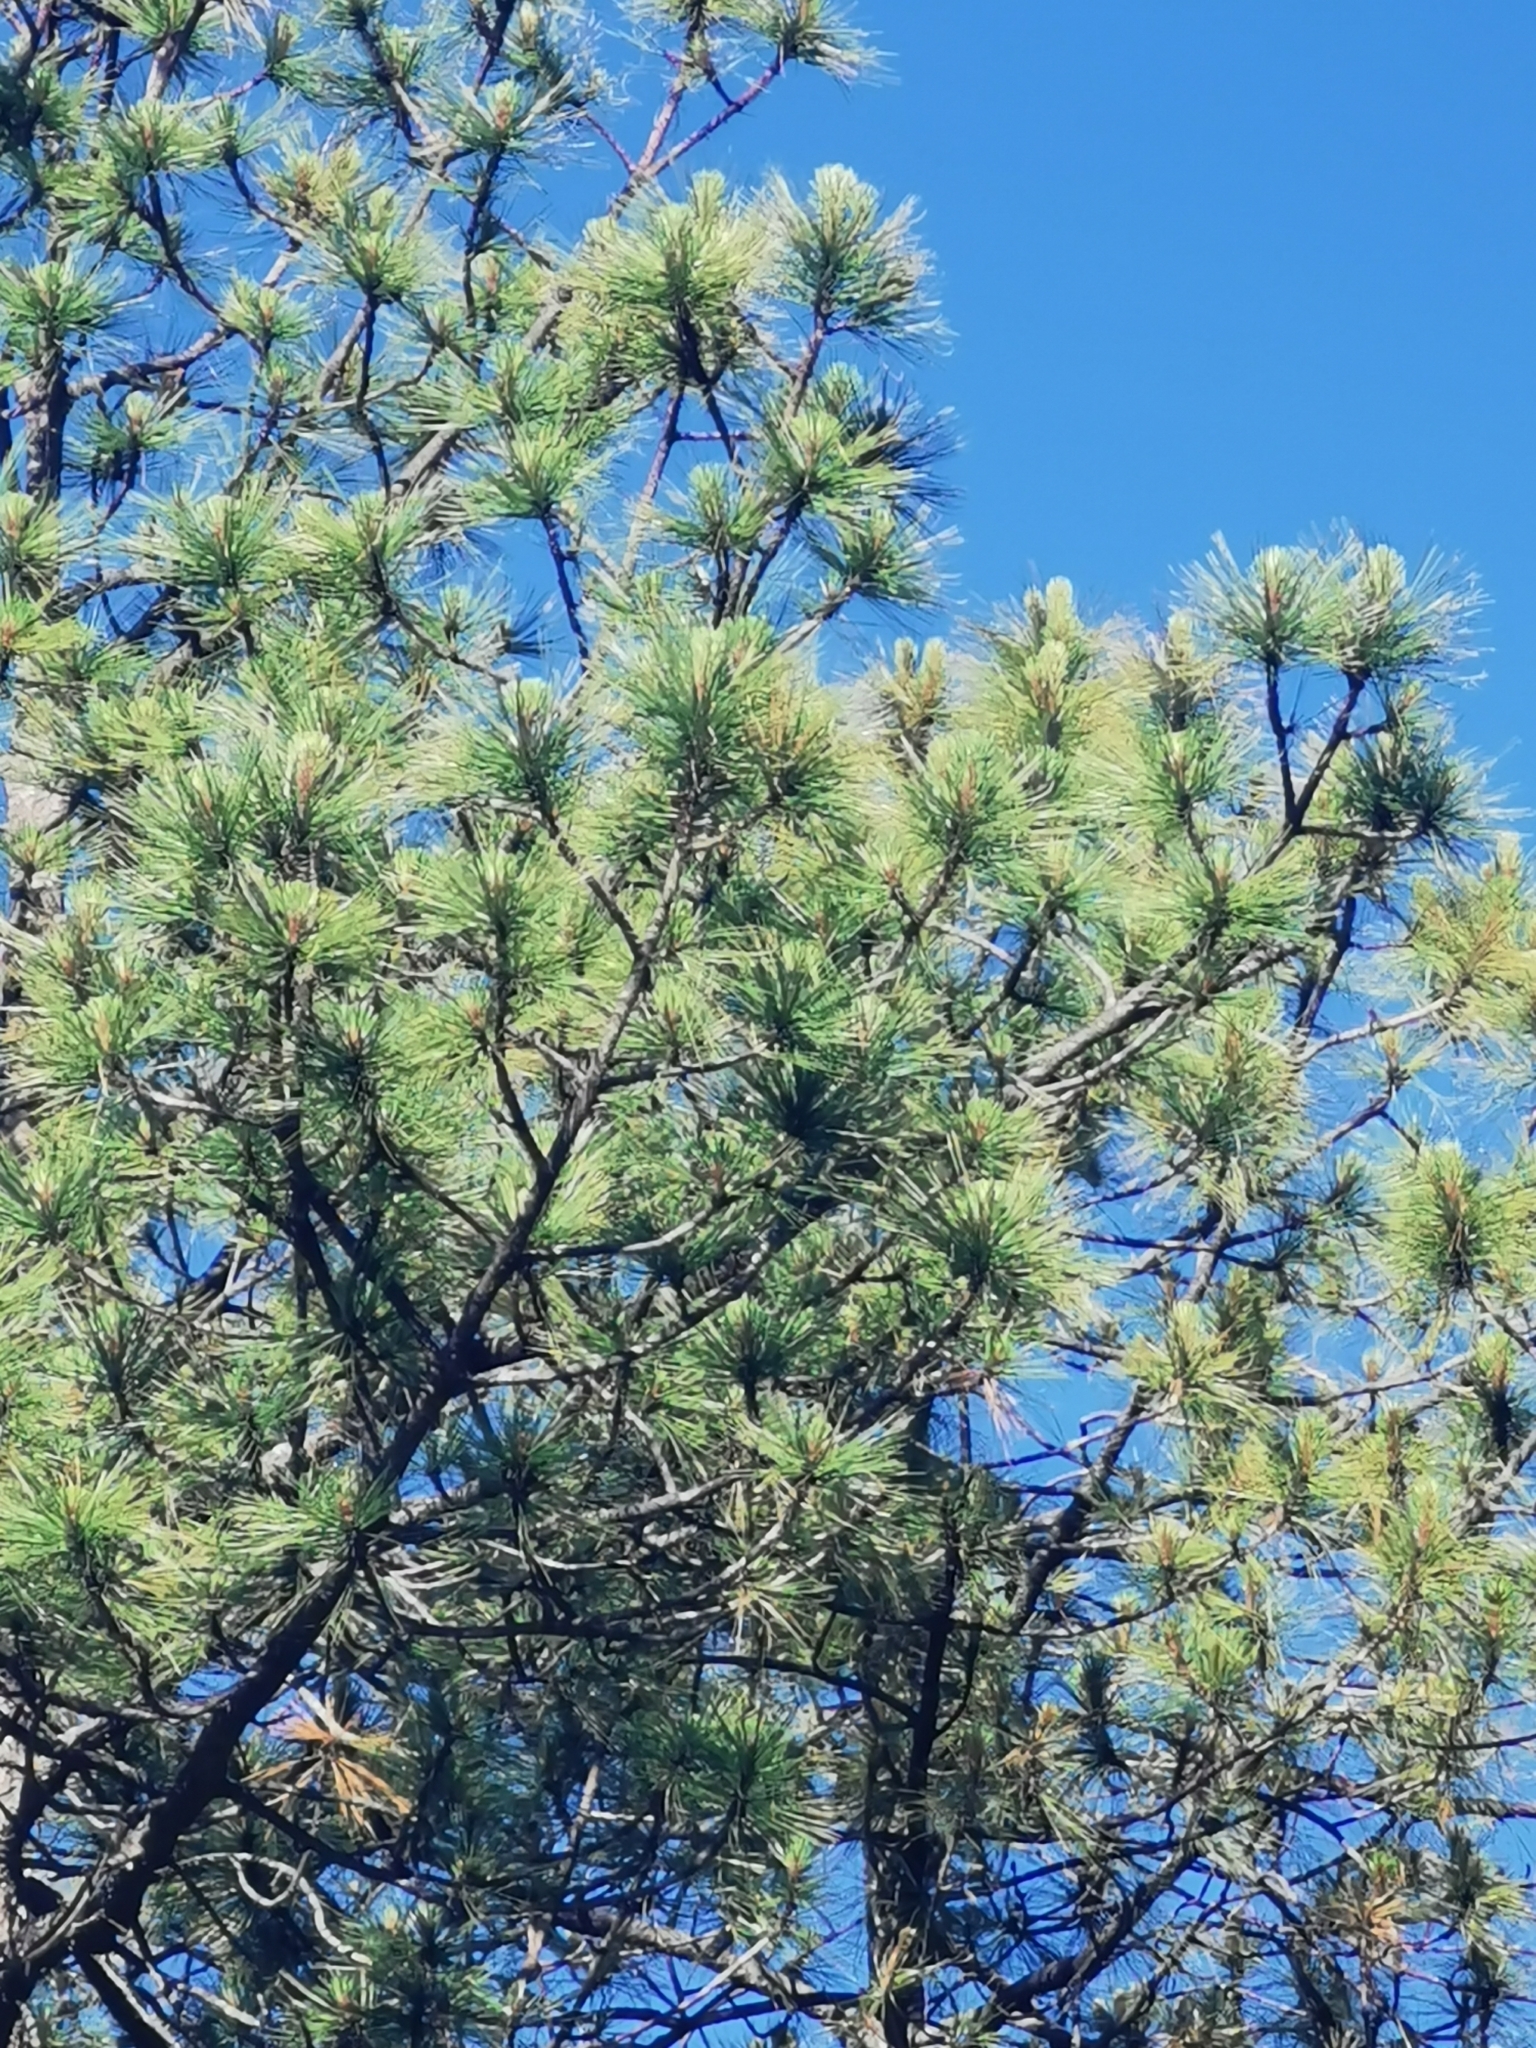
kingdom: Plantae
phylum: Tracheophyta
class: Pinopsida
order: Pinales
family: Pinaceae
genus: Pinus
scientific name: Pinus arizonica
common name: Arizona pine
